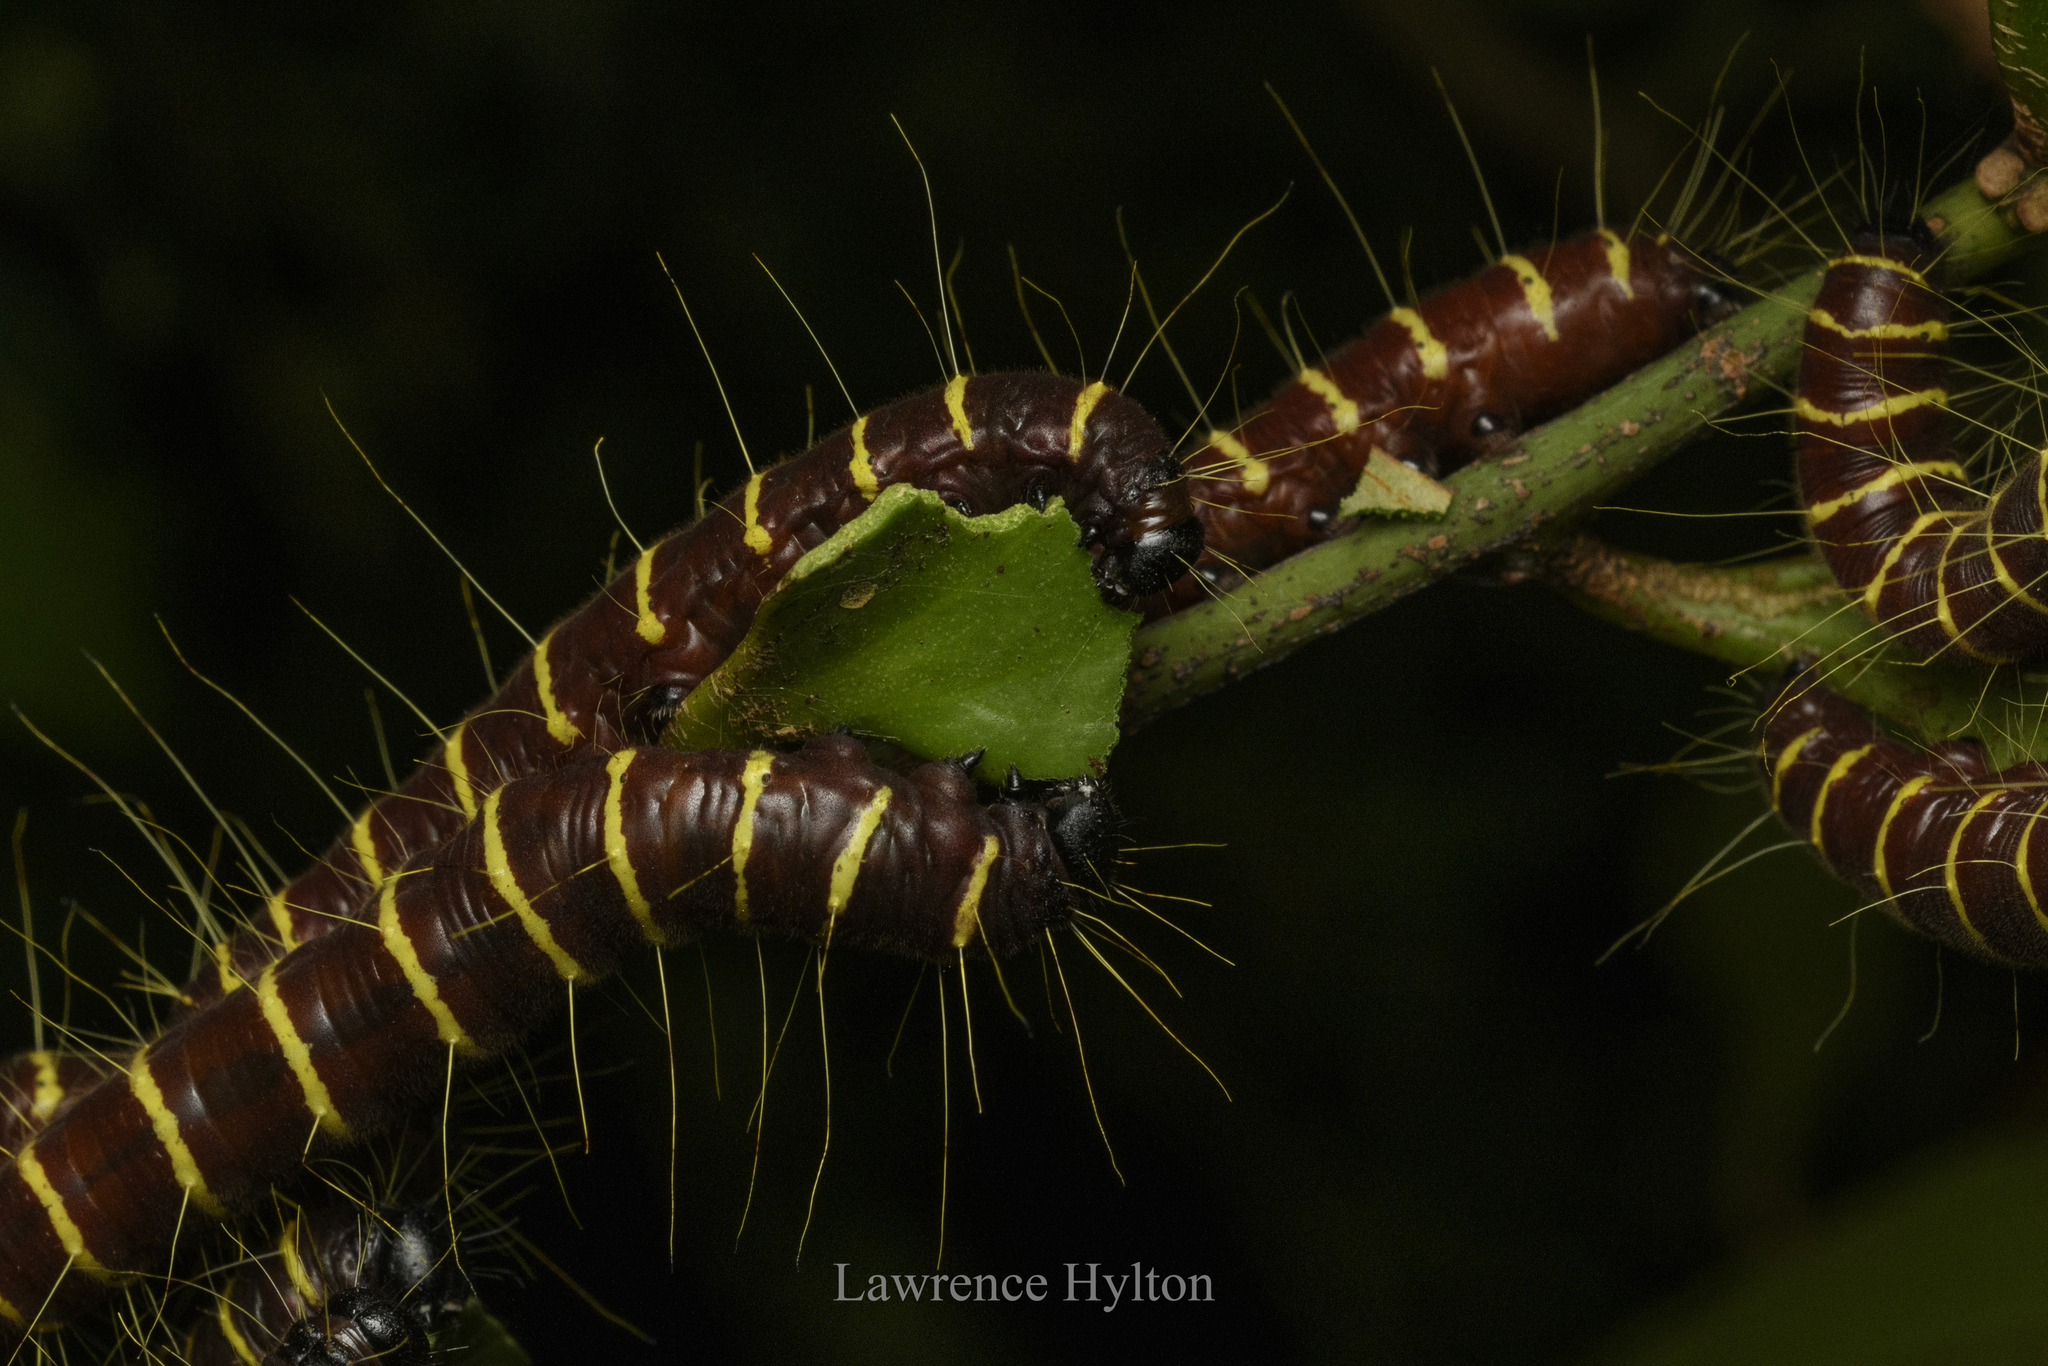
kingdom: Animalia
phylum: Arthropoda
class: Insecta
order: Lepidoptera
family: Pieridae
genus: Delias
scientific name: Delias pasithoe
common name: Red-base jezebel
